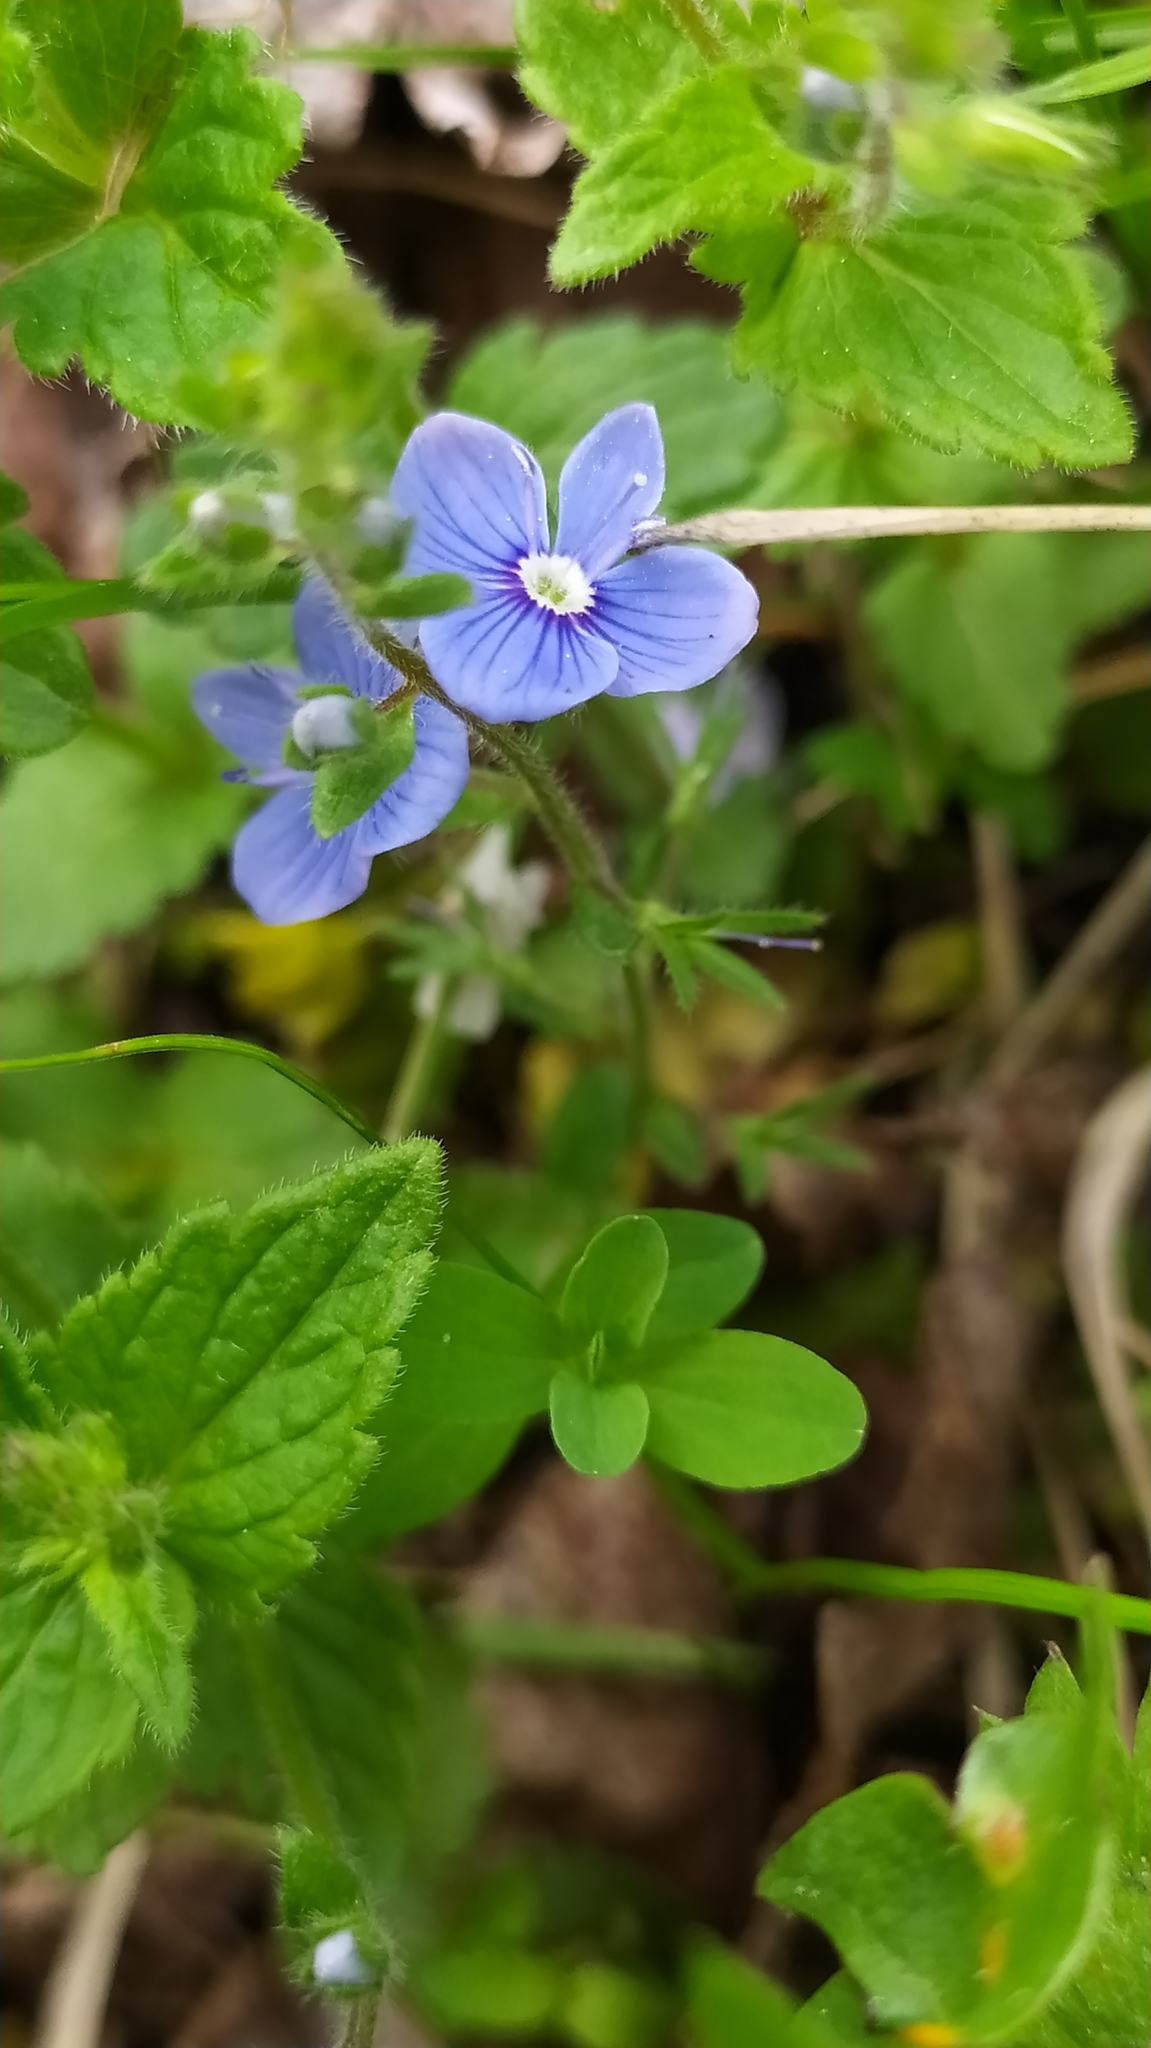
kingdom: Plantae
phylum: Tracheophyta
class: Magnoliopsida
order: Lamiales
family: Plantaginaceae
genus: Veronica
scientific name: Veronica chamaedrys
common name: Germander speedwell
